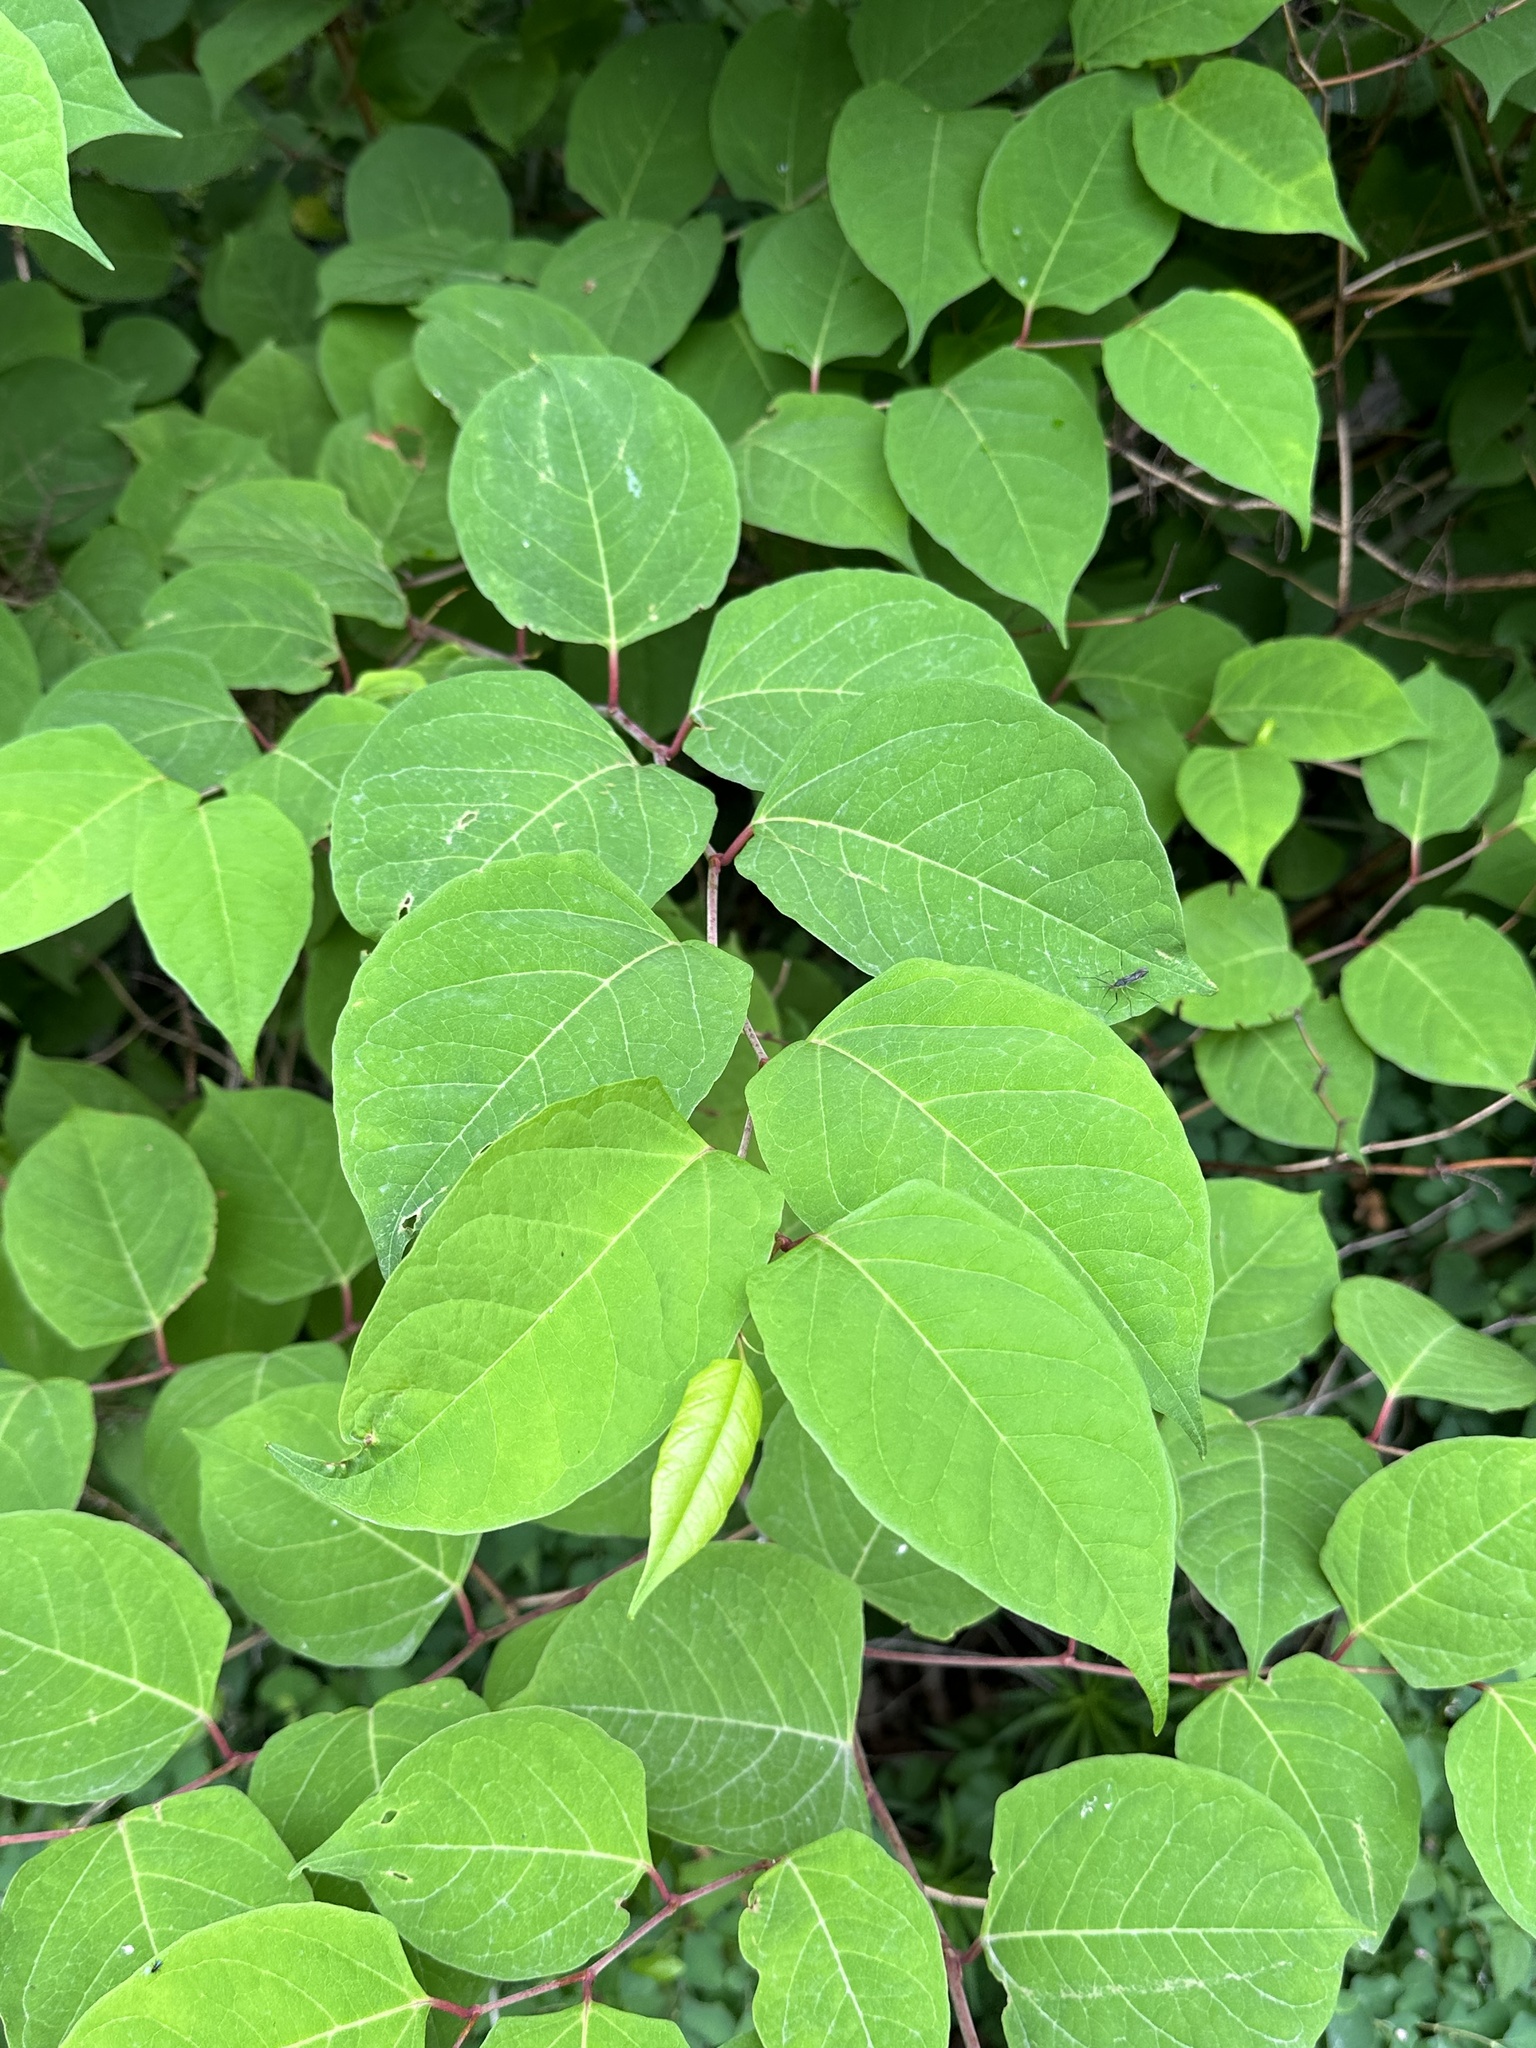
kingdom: Plantae
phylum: Tracheophyta
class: Magnoliopsida
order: Caryophyllales
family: Polygonaceae
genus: Reynoutria
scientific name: Reynoutria japonica
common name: Japanese knotweed
